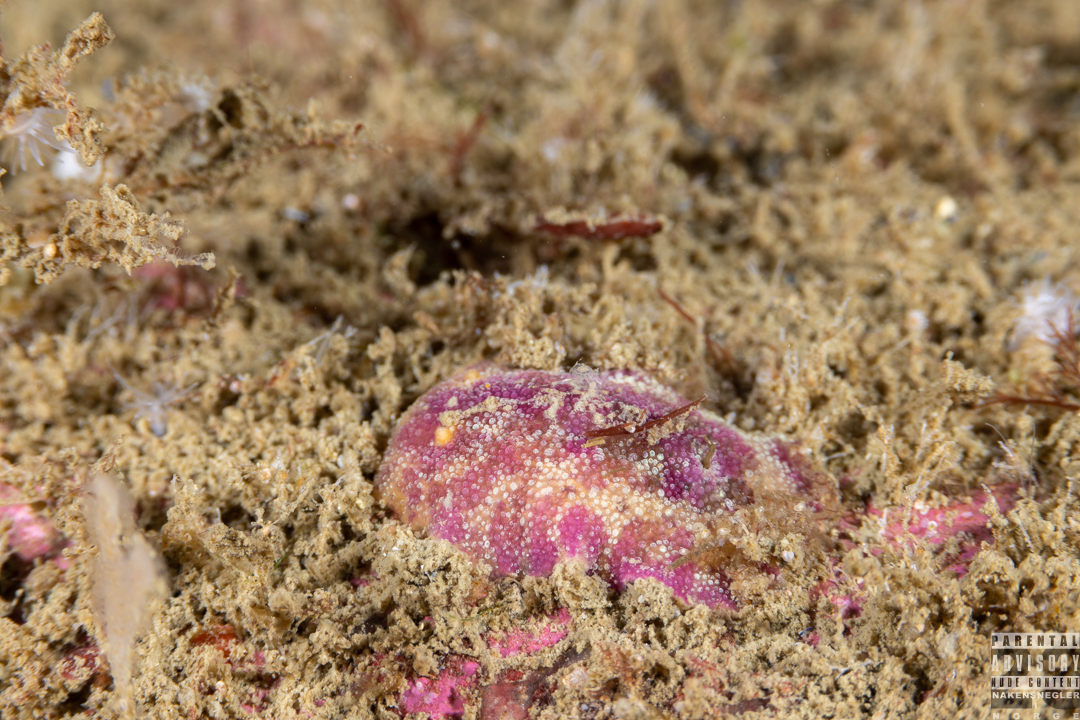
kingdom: Animalia
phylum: Mollusca
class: Gastropoda
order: Nudibranchia
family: Dorididae
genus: Doris
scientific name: Doris pseudoargus
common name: Sea lemon
